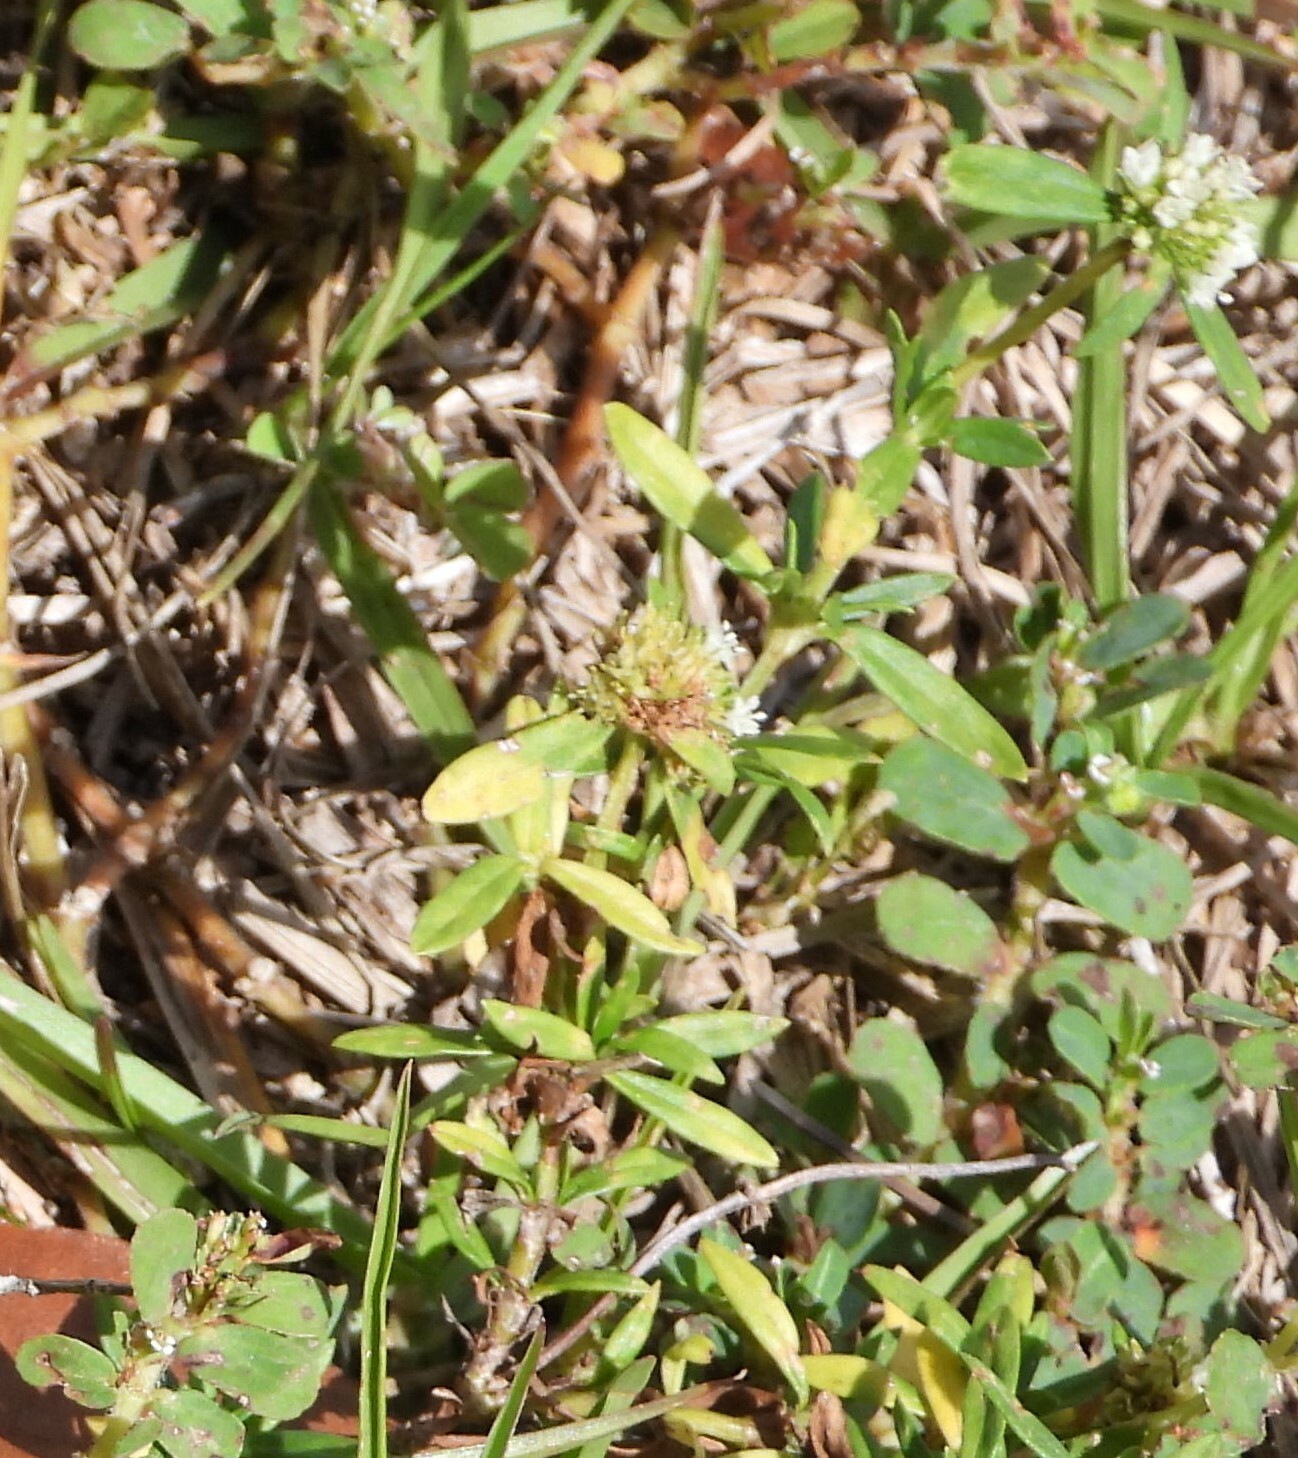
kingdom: Plantae
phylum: Tracheophyta
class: Magnoliopsida
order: Gentianales
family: Rubiaceae
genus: Spermacoce
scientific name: Spermacoce verticillata
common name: Shrubby false buttonweed
